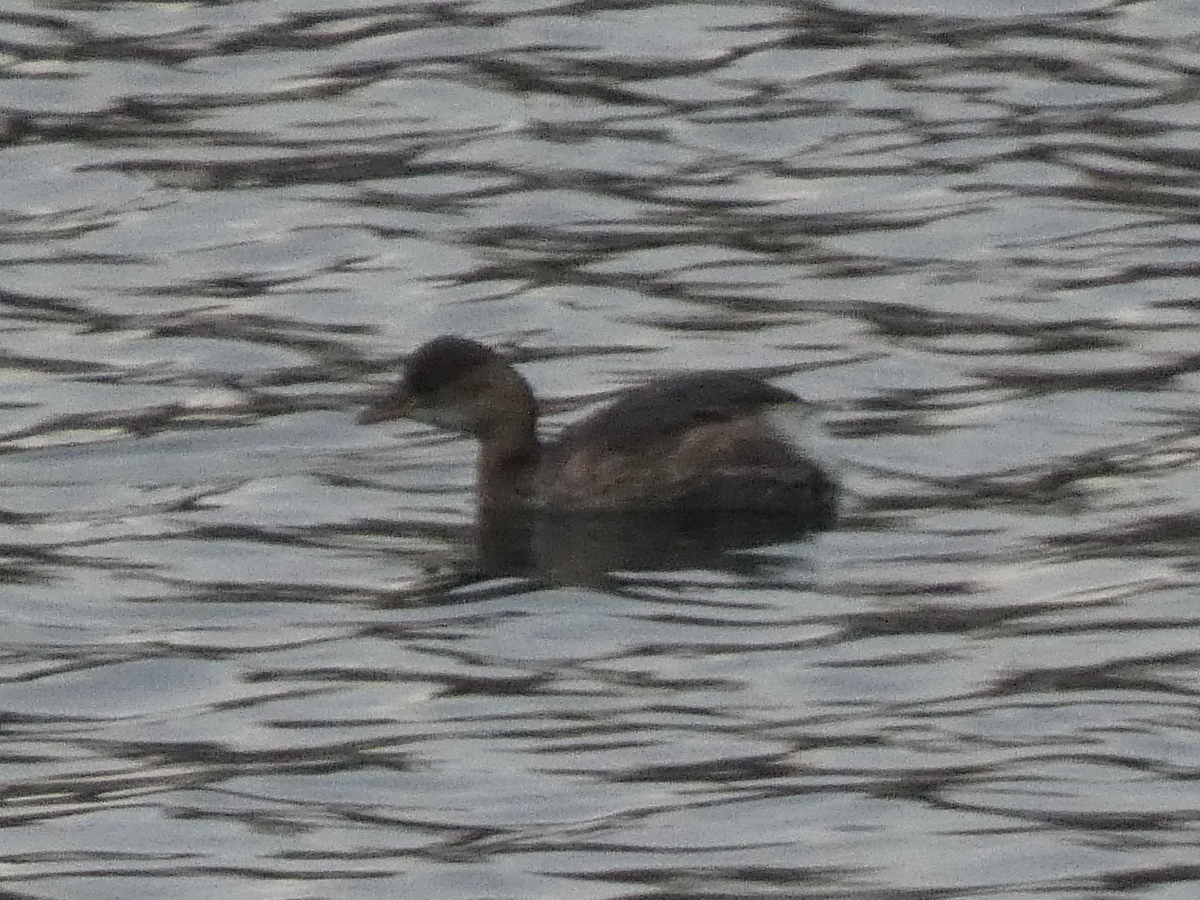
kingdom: Animalia
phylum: Chordata
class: Aves
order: Podicipediformes
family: Podicipedidae
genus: Tachybaptus
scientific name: Tachybaptus ruficollis
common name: Little grebe
